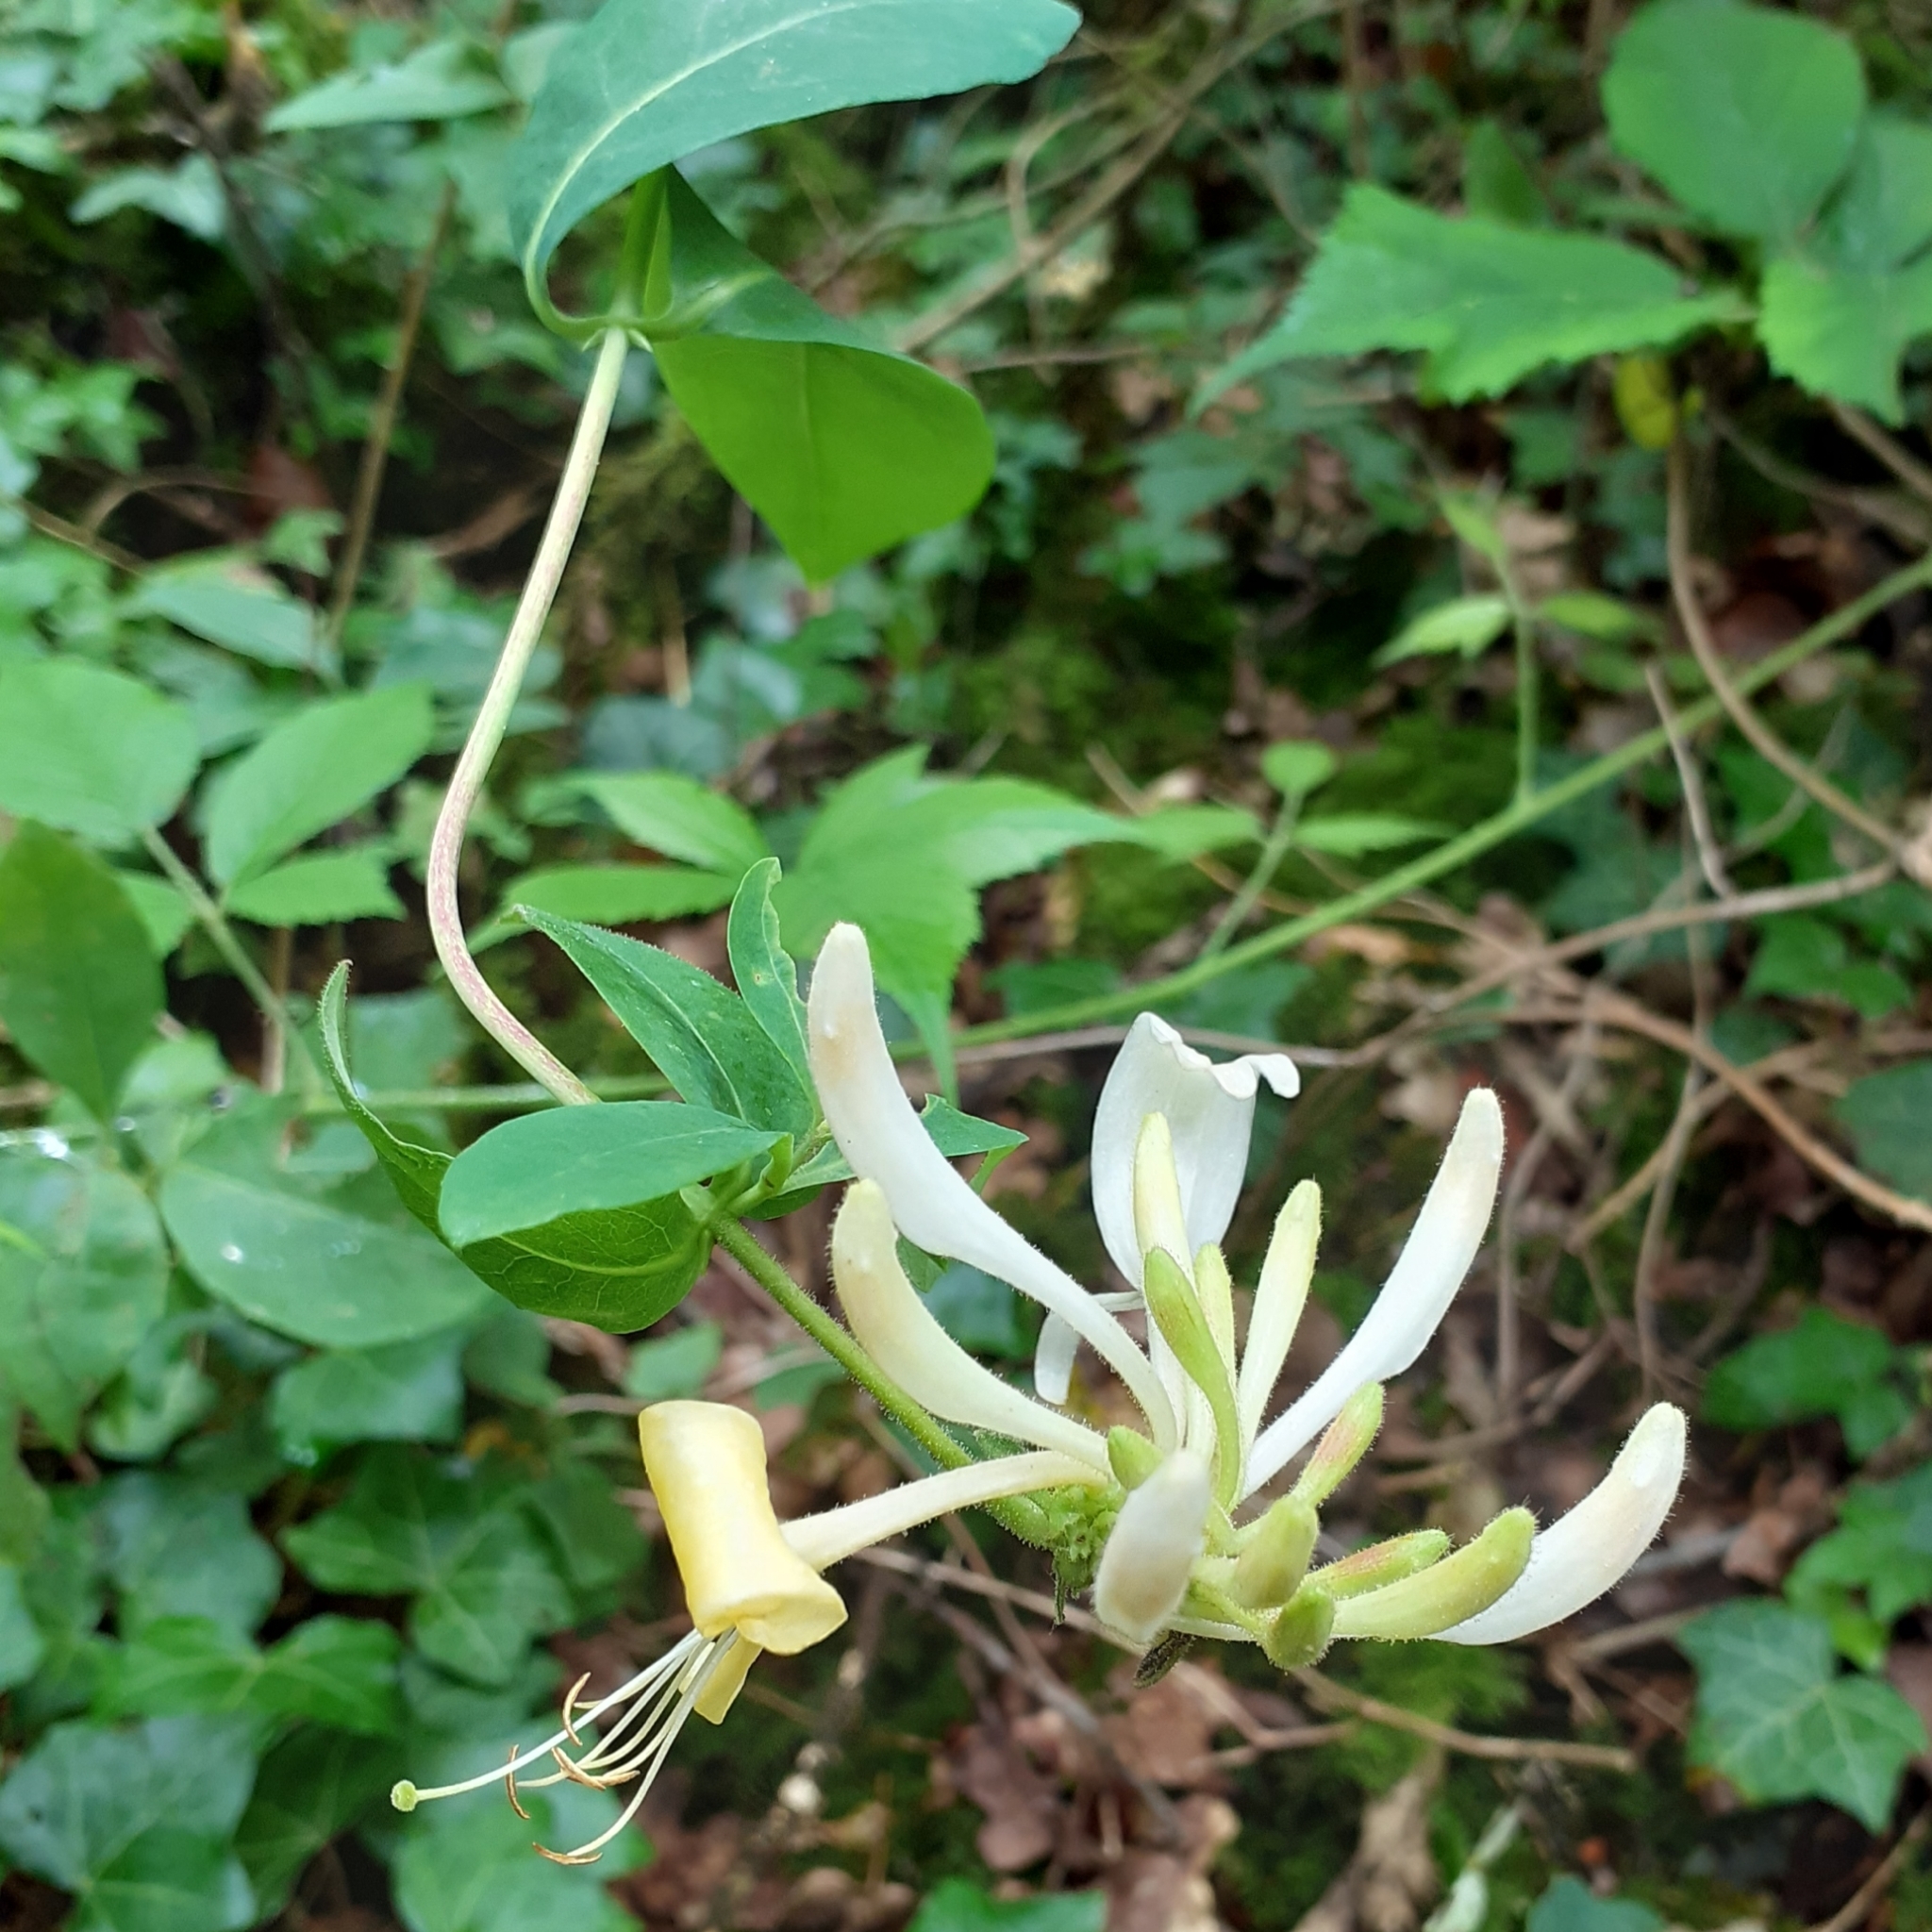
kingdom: Plantae
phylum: Tracheophyta
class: Magnoliopsida
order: Dipsacales
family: Caprifoliaceae
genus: Lonicera
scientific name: Lonicera periclymenum
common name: European honeysuckle
